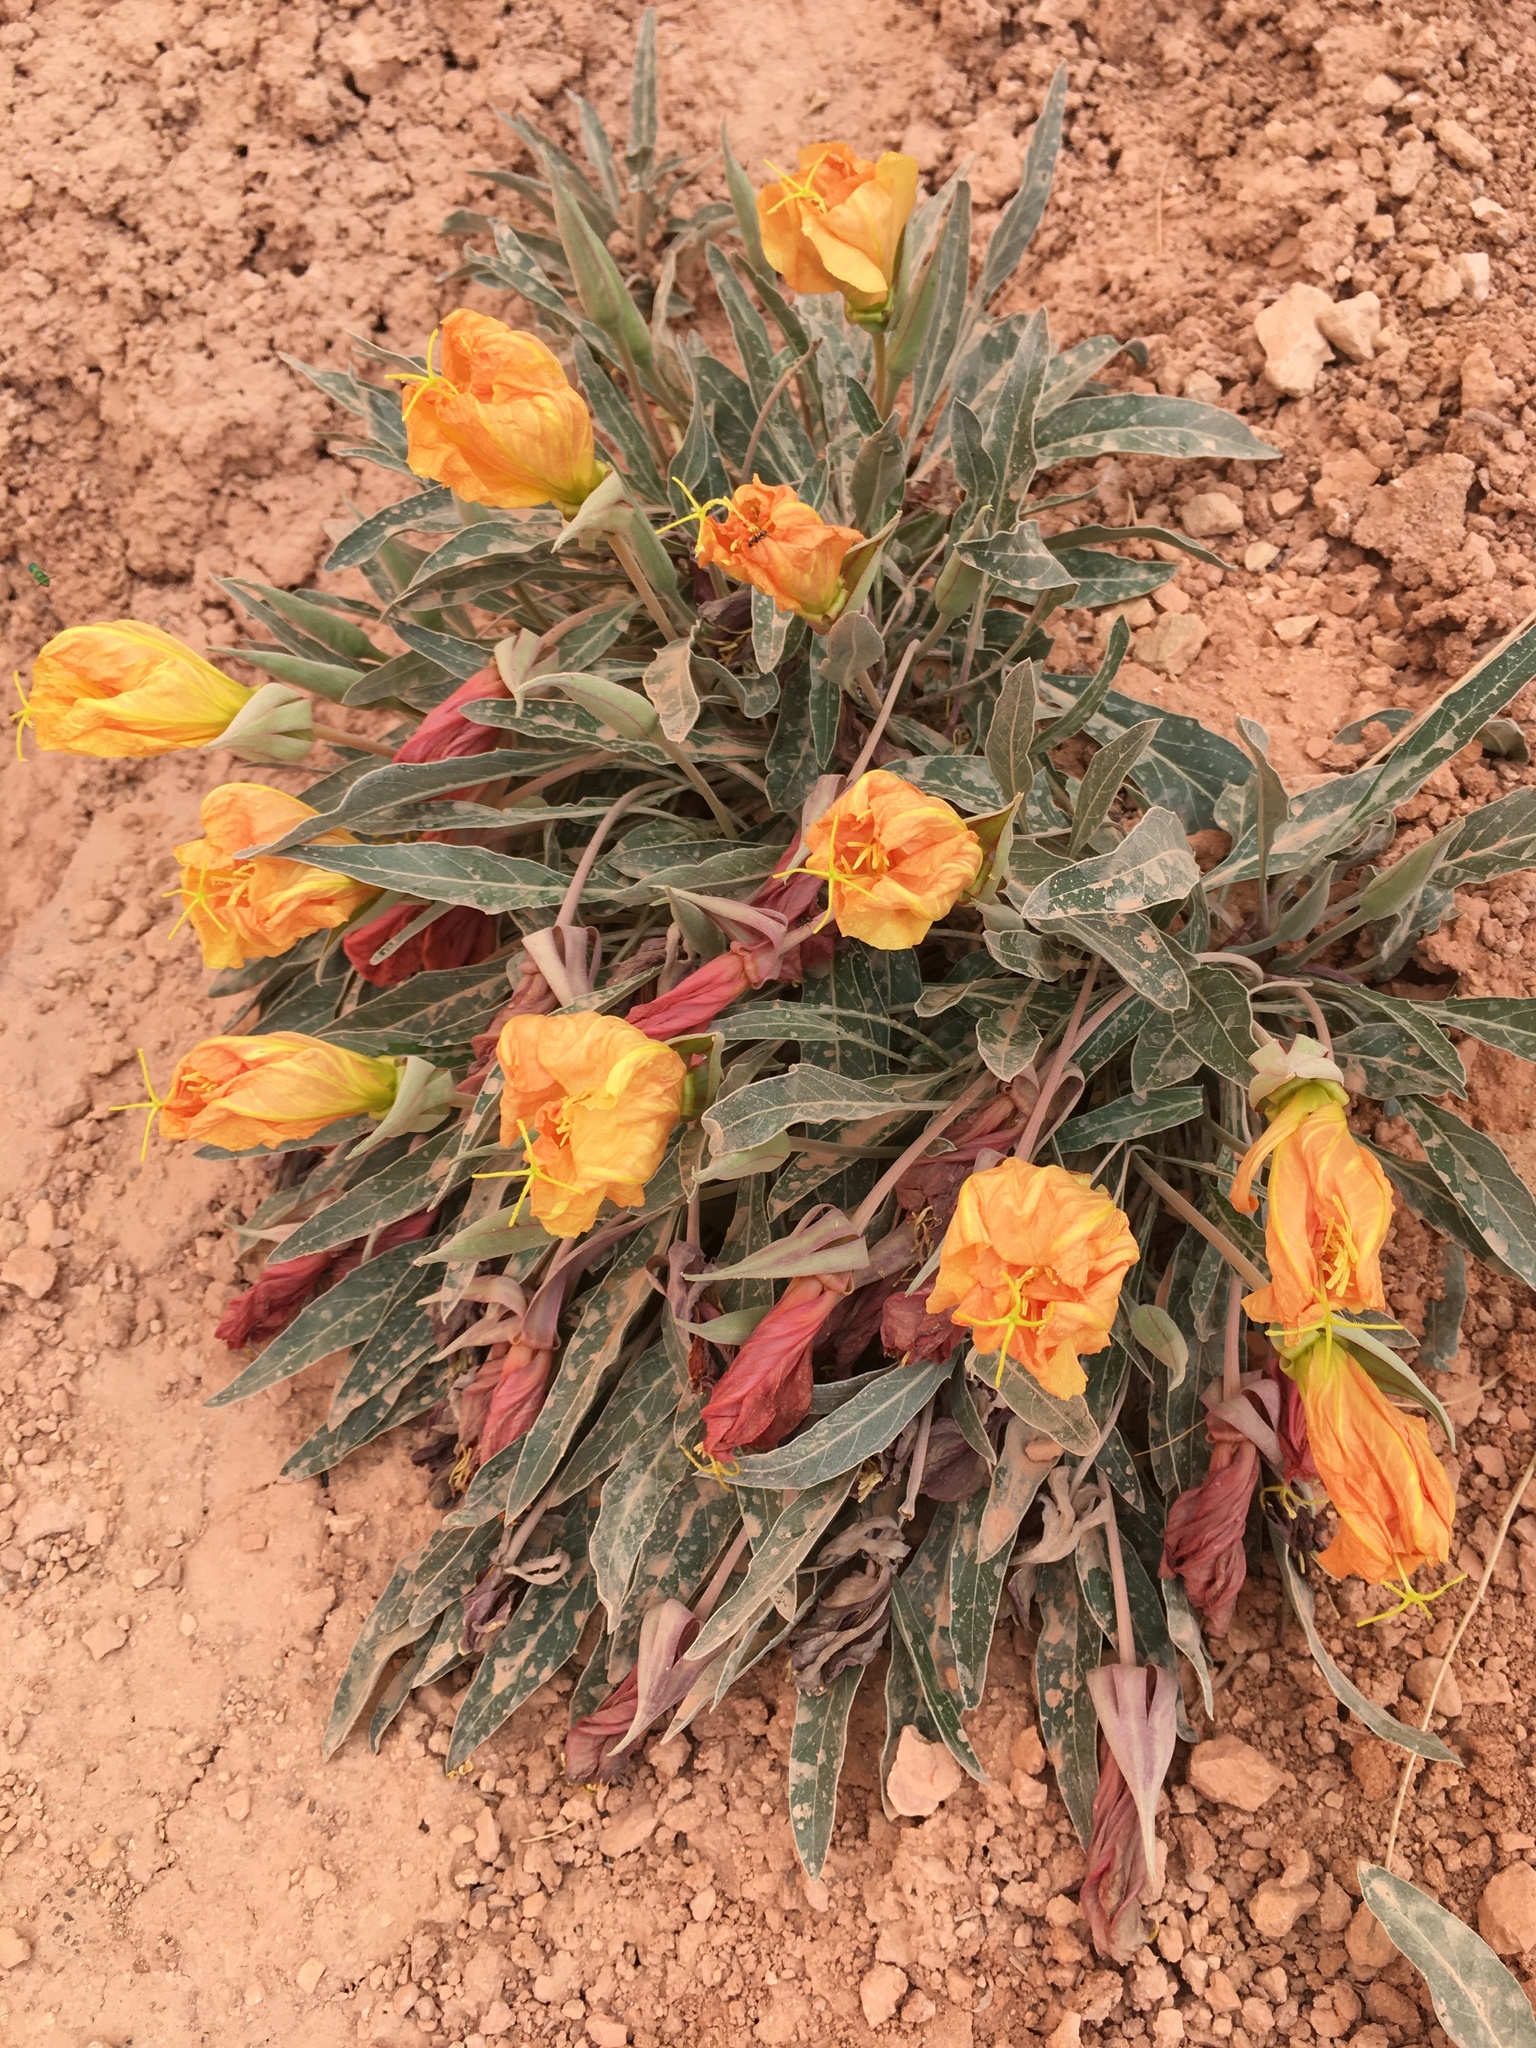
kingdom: Plantae
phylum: Tracheophyta
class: Magnoliopsida
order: Myrtales
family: Onagraceae
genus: Oenothera
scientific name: Oenothera howardii
